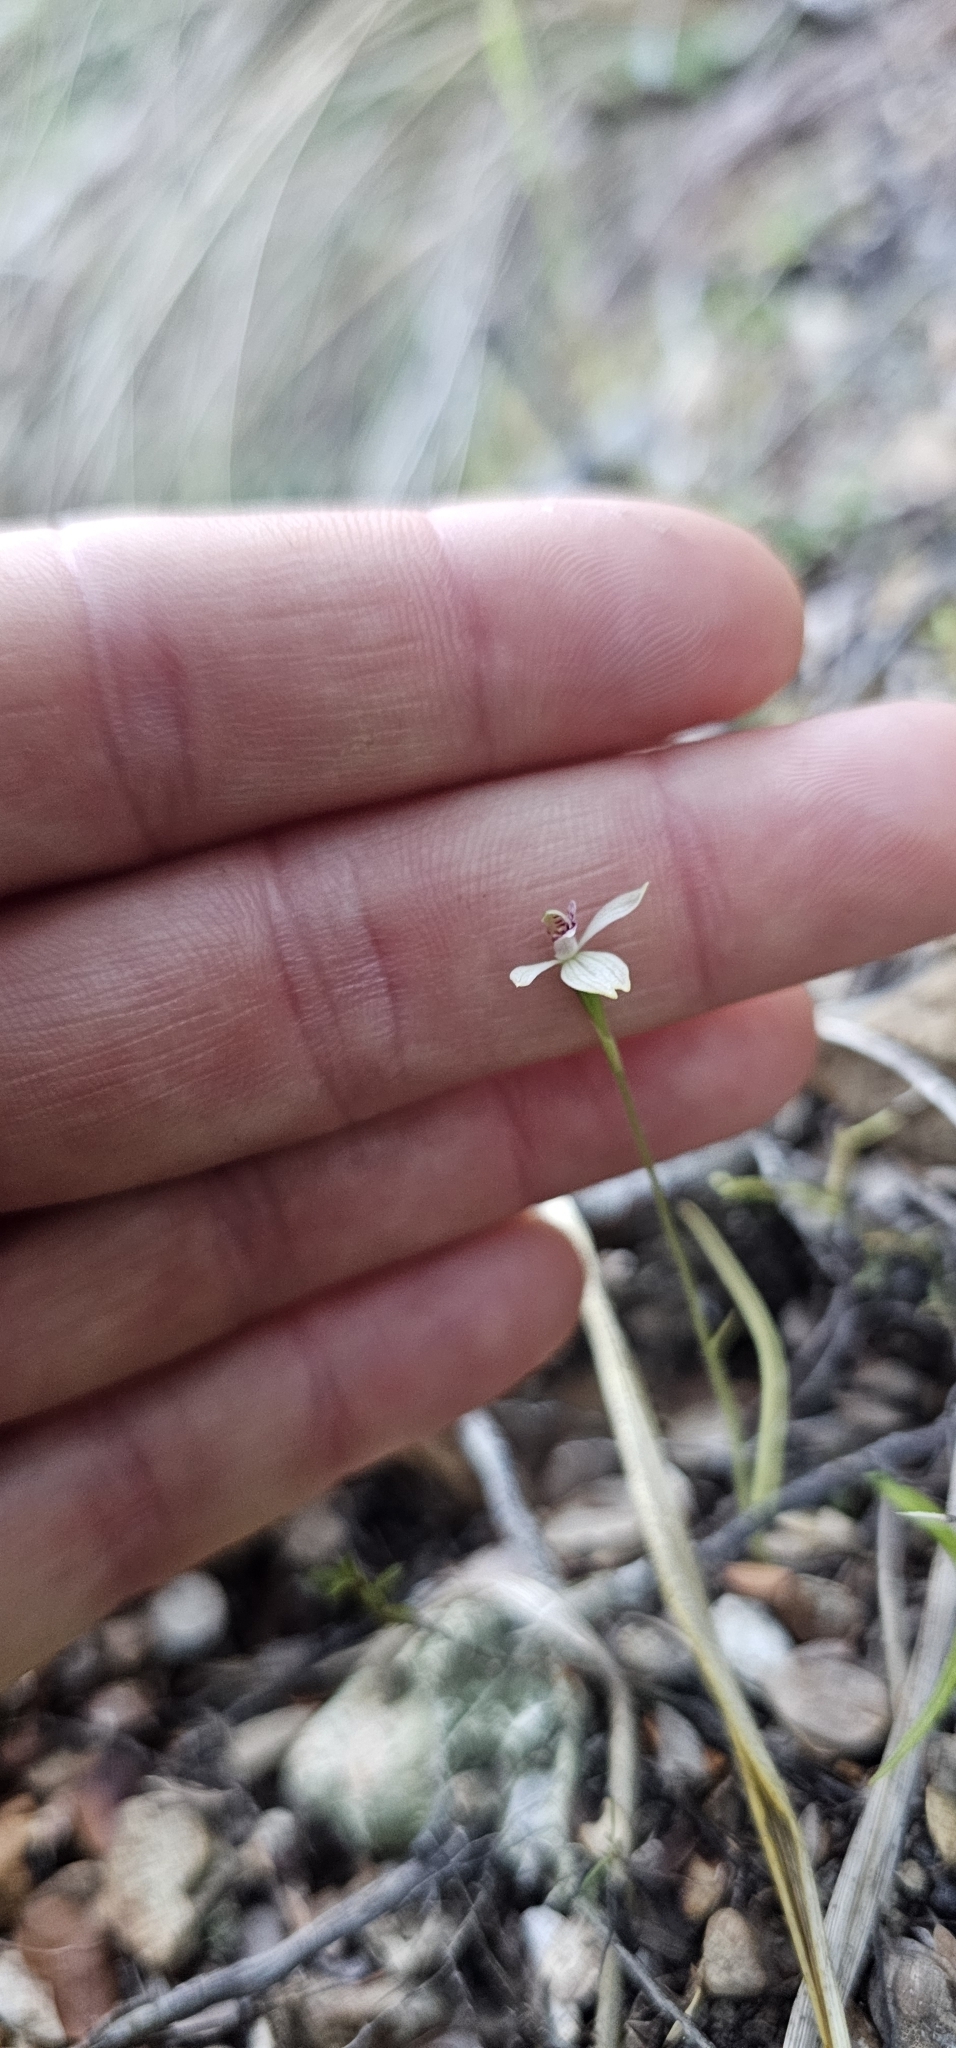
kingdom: Plantae
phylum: Tracheophyta
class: Liliopsida
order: Asparagales
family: Orchidaceae
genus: Caladenia
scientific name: Caladenia chlorostyla
